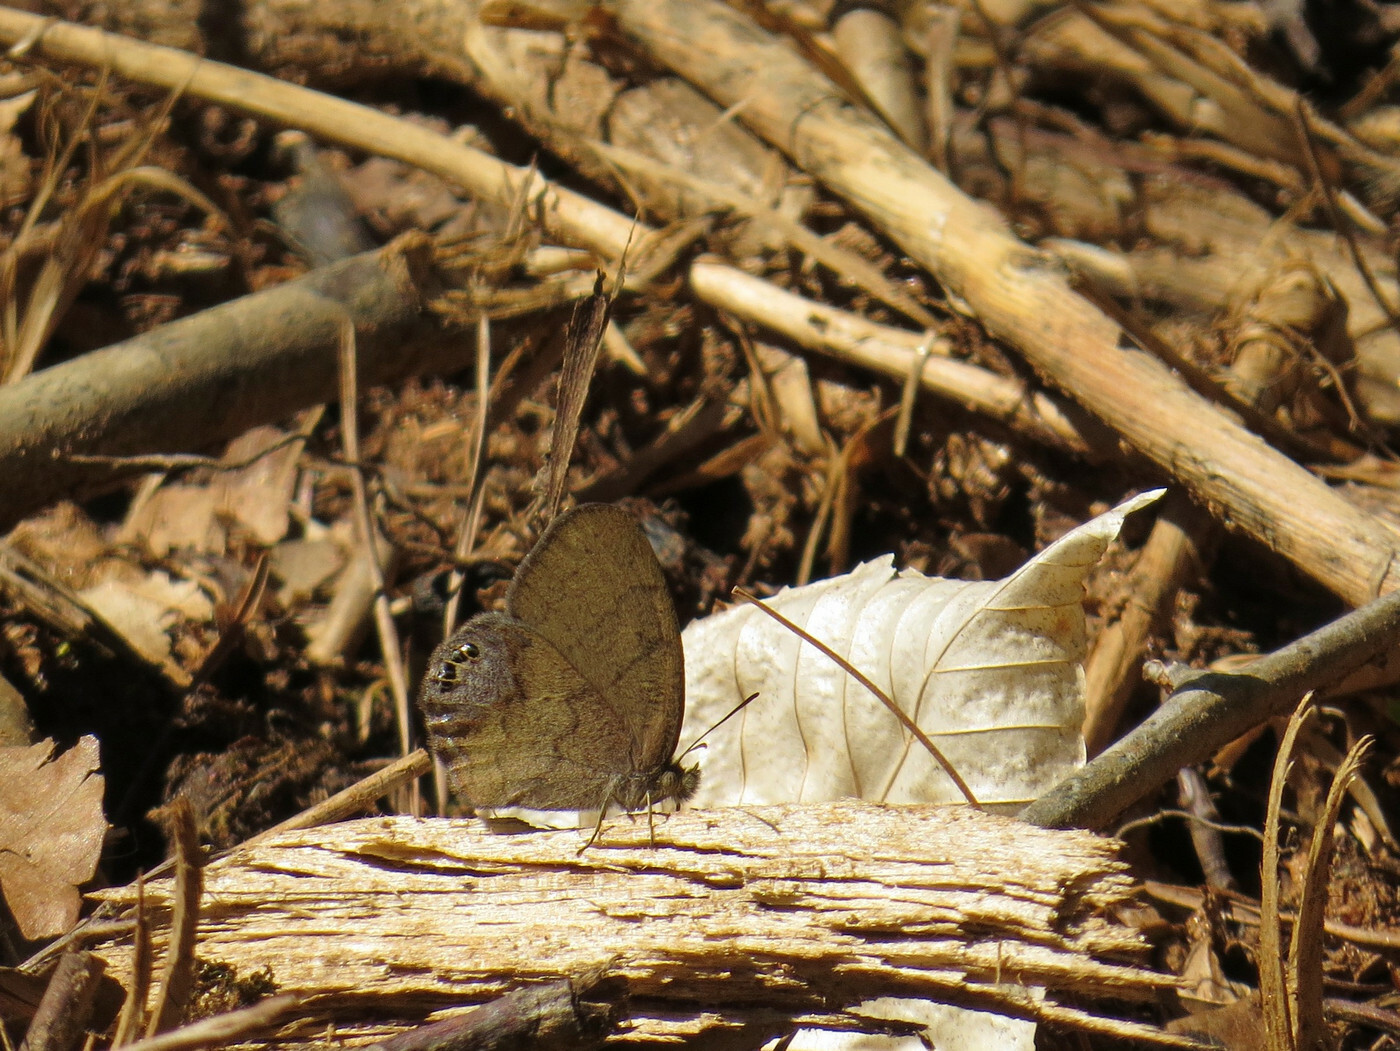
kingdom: Animalia
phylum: Arthropoda
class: Insecta
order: Lepidoptera
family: Nymphalidae
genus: Euptychia
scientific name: Euptychia cornelius
